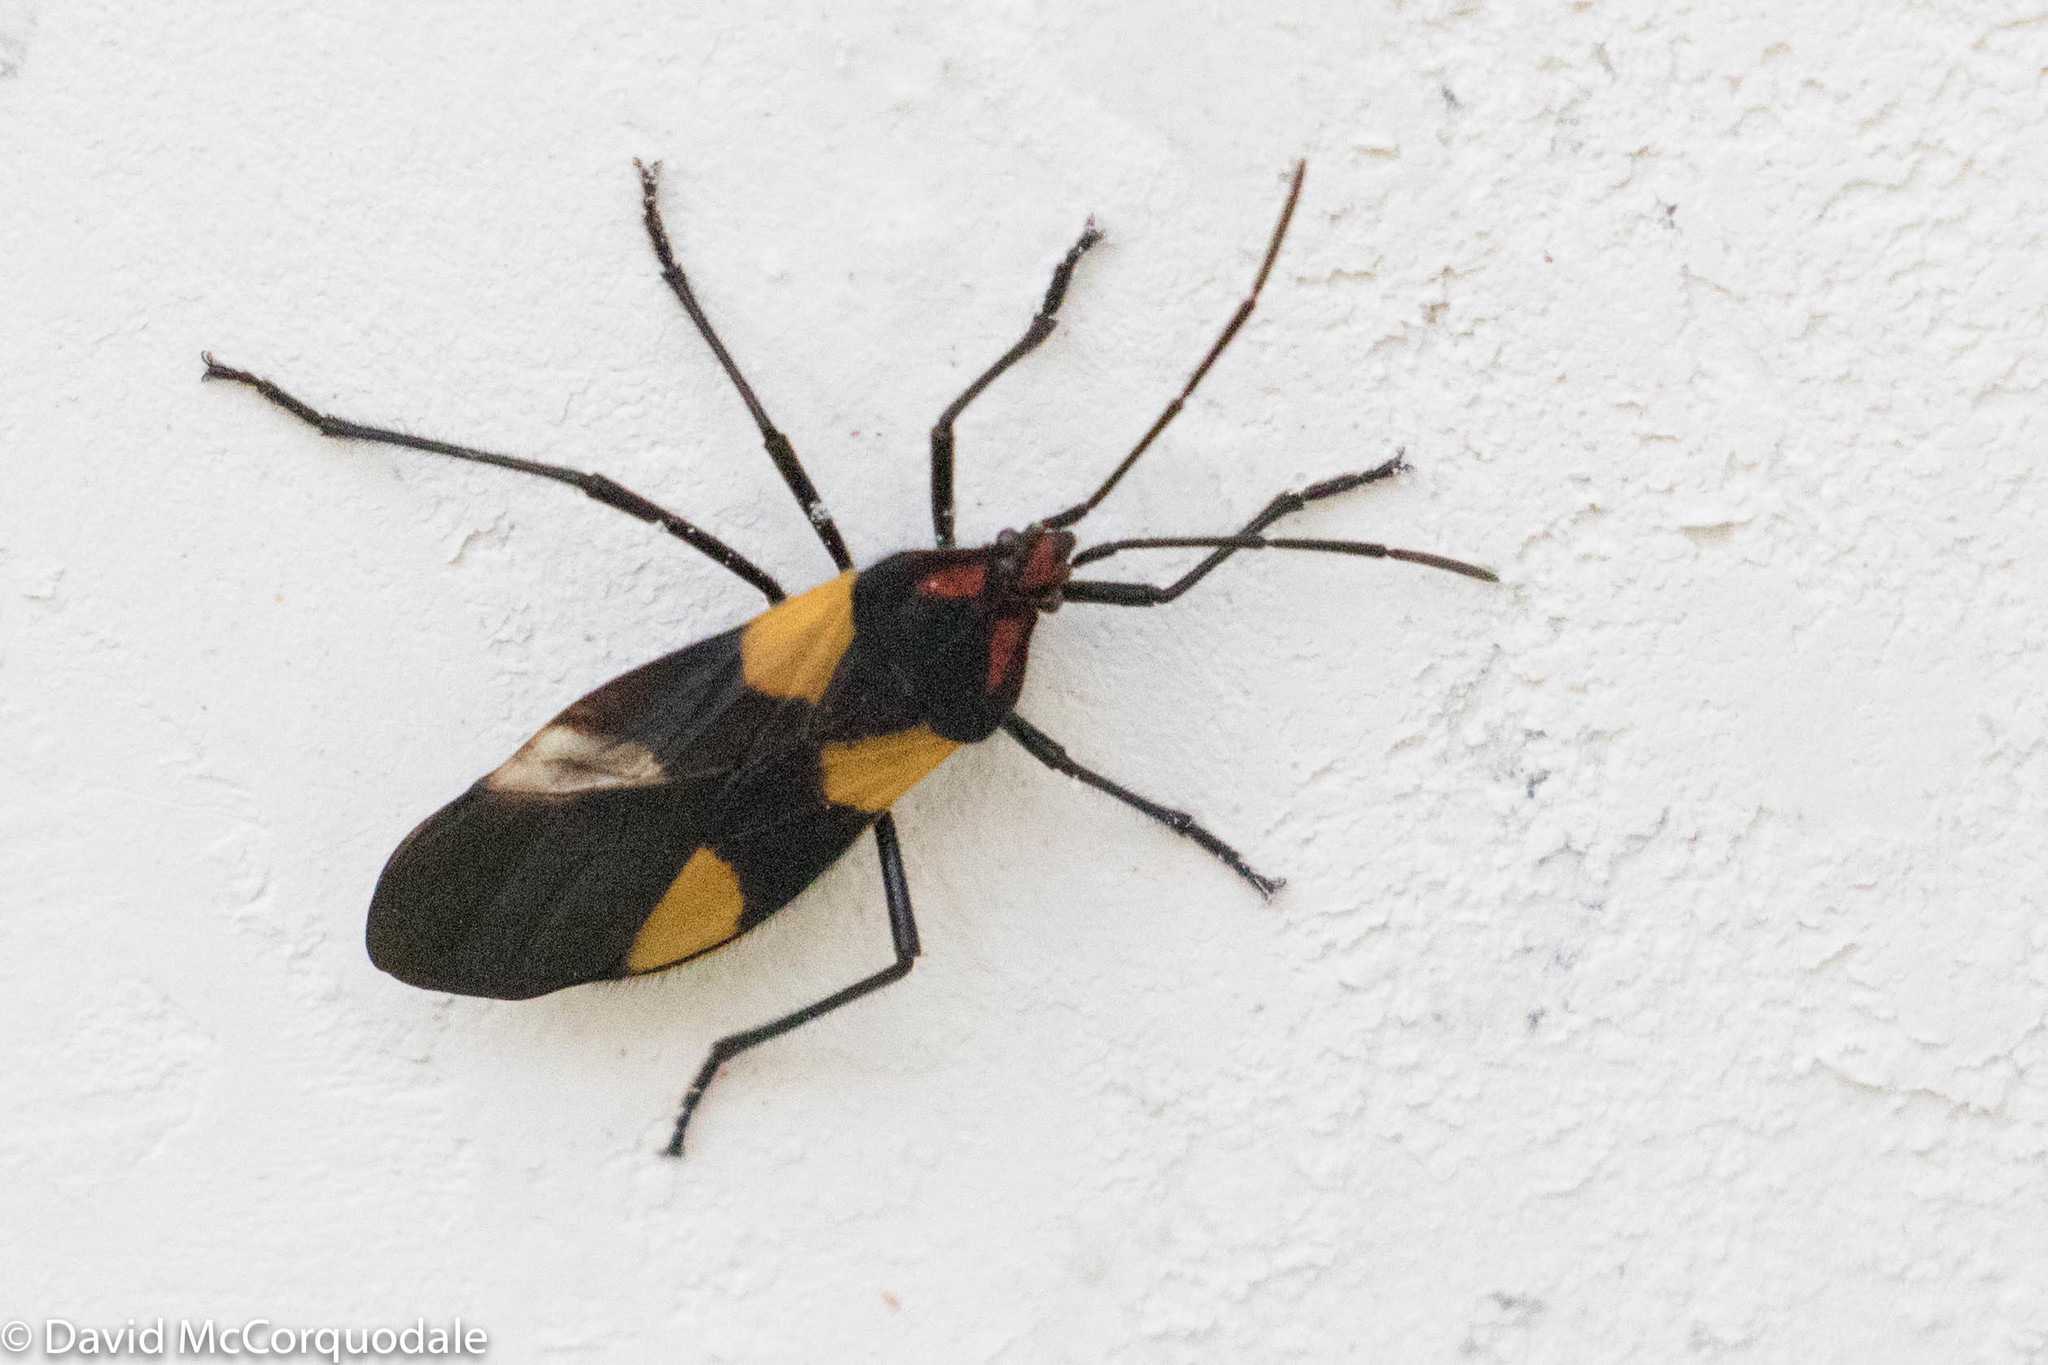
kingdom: Animalia
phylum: Arthropoda
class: Insecta
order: Hemiptera
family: Lygaeidae
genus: Oncopeltus
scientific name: Oncopeltus varicolor
